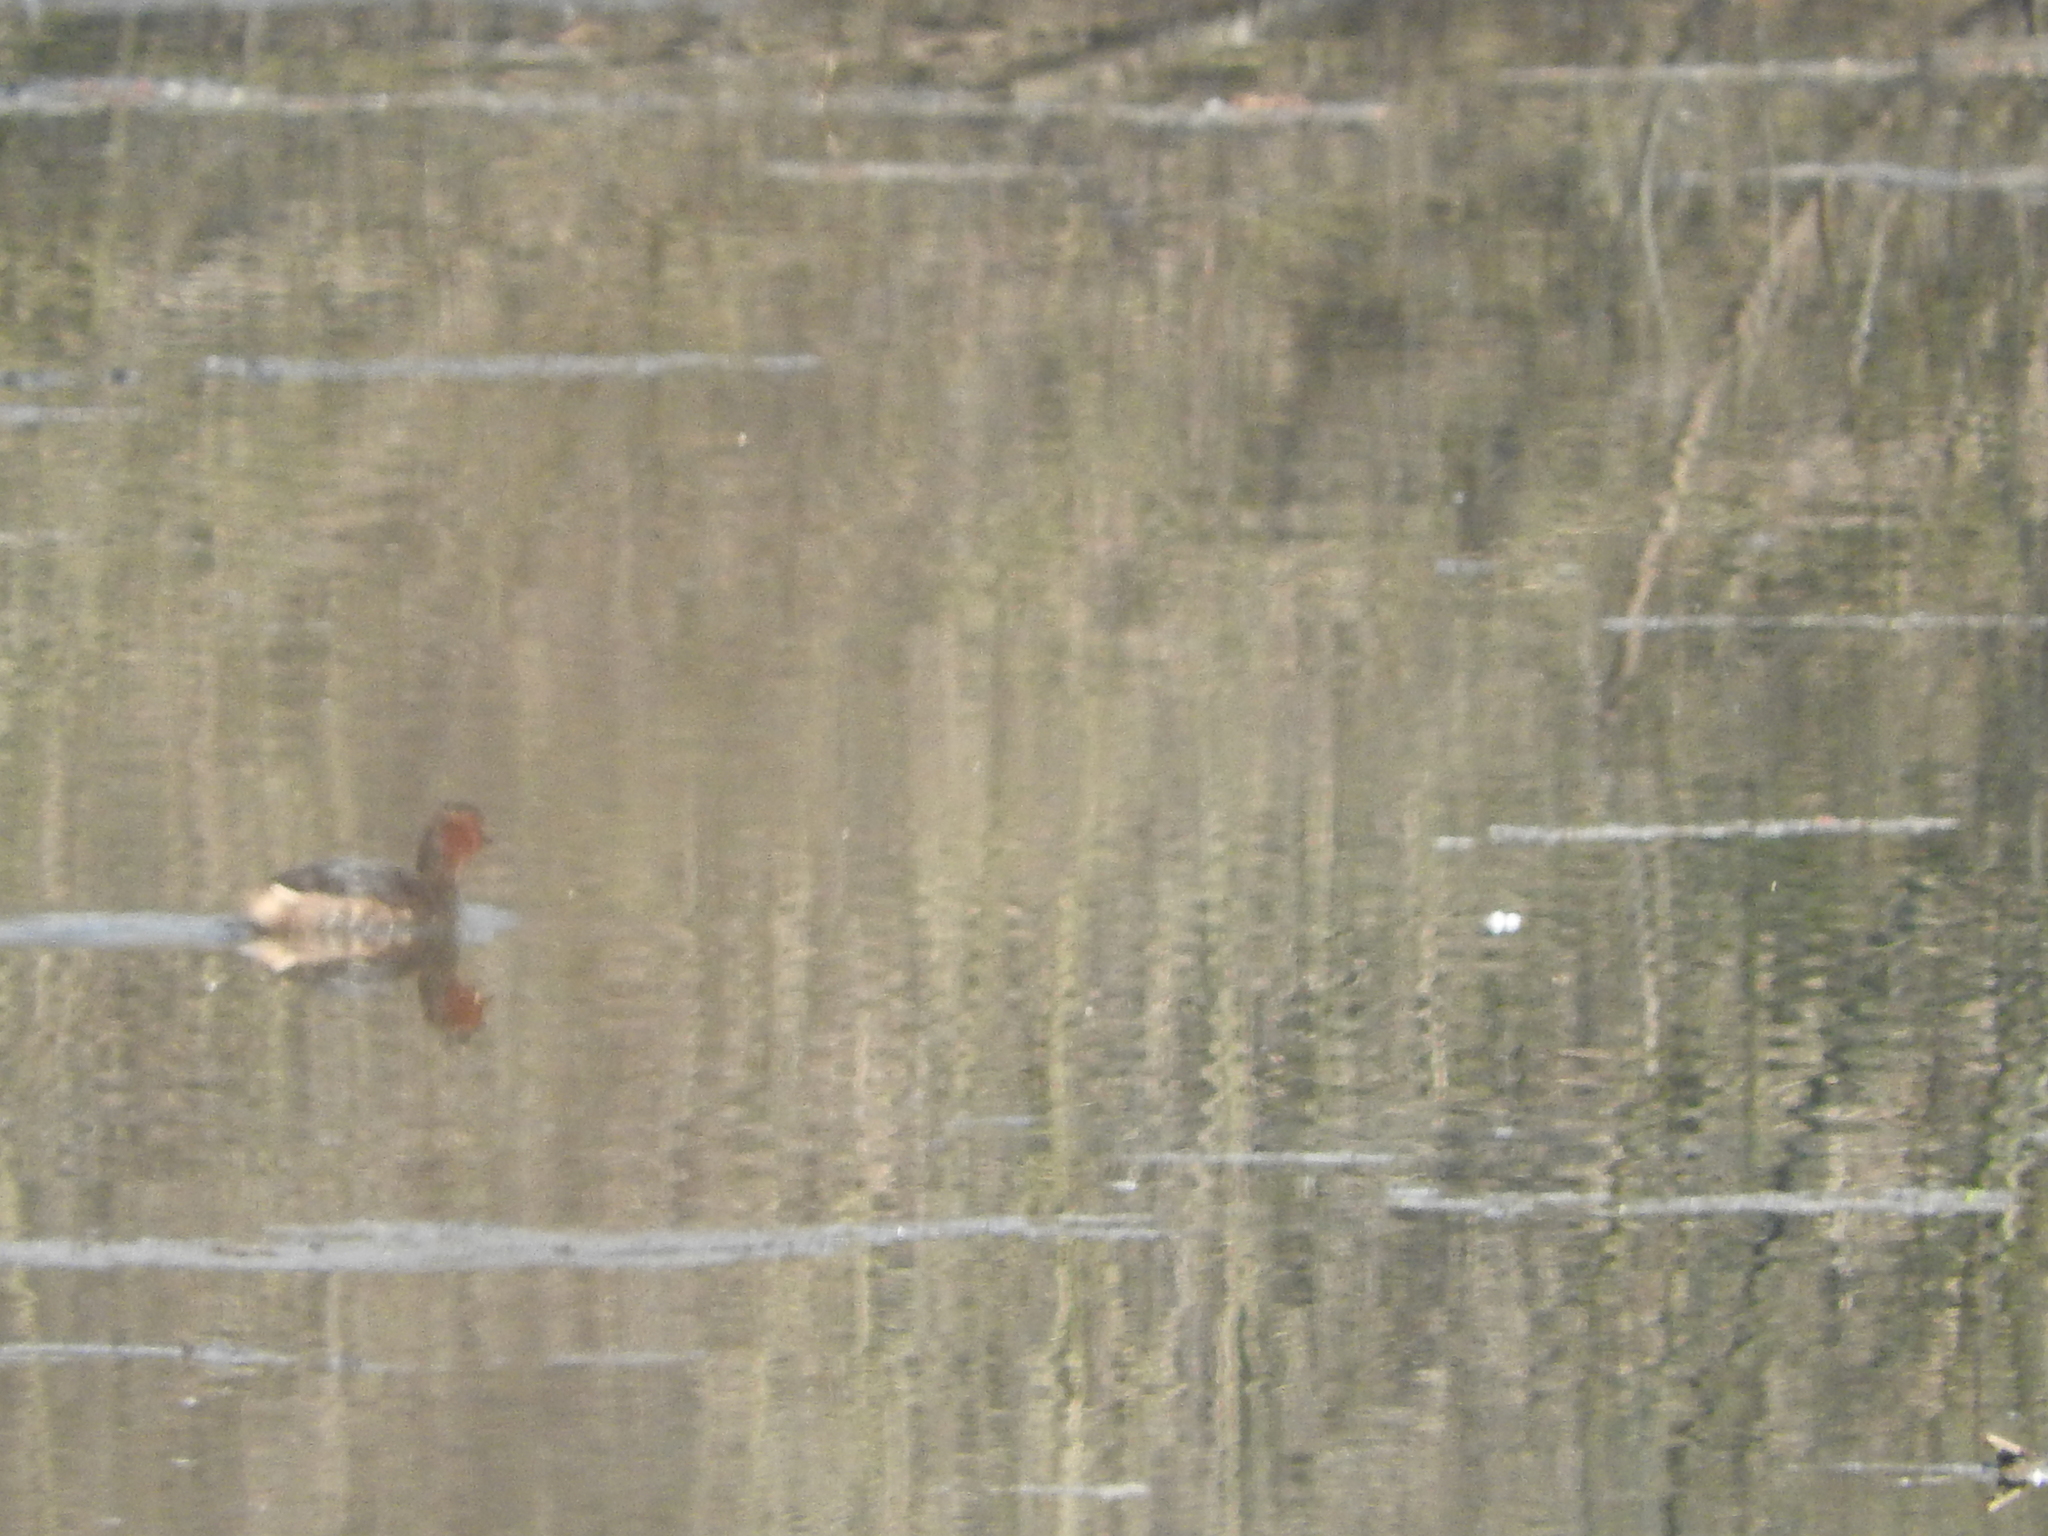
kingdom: Animalia
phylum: Chordata
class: Aves
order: Podicipediformes
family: Podicipedidae
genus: Tachybaptus
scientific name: Tachybaptus ruficollis
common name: Little grebe
